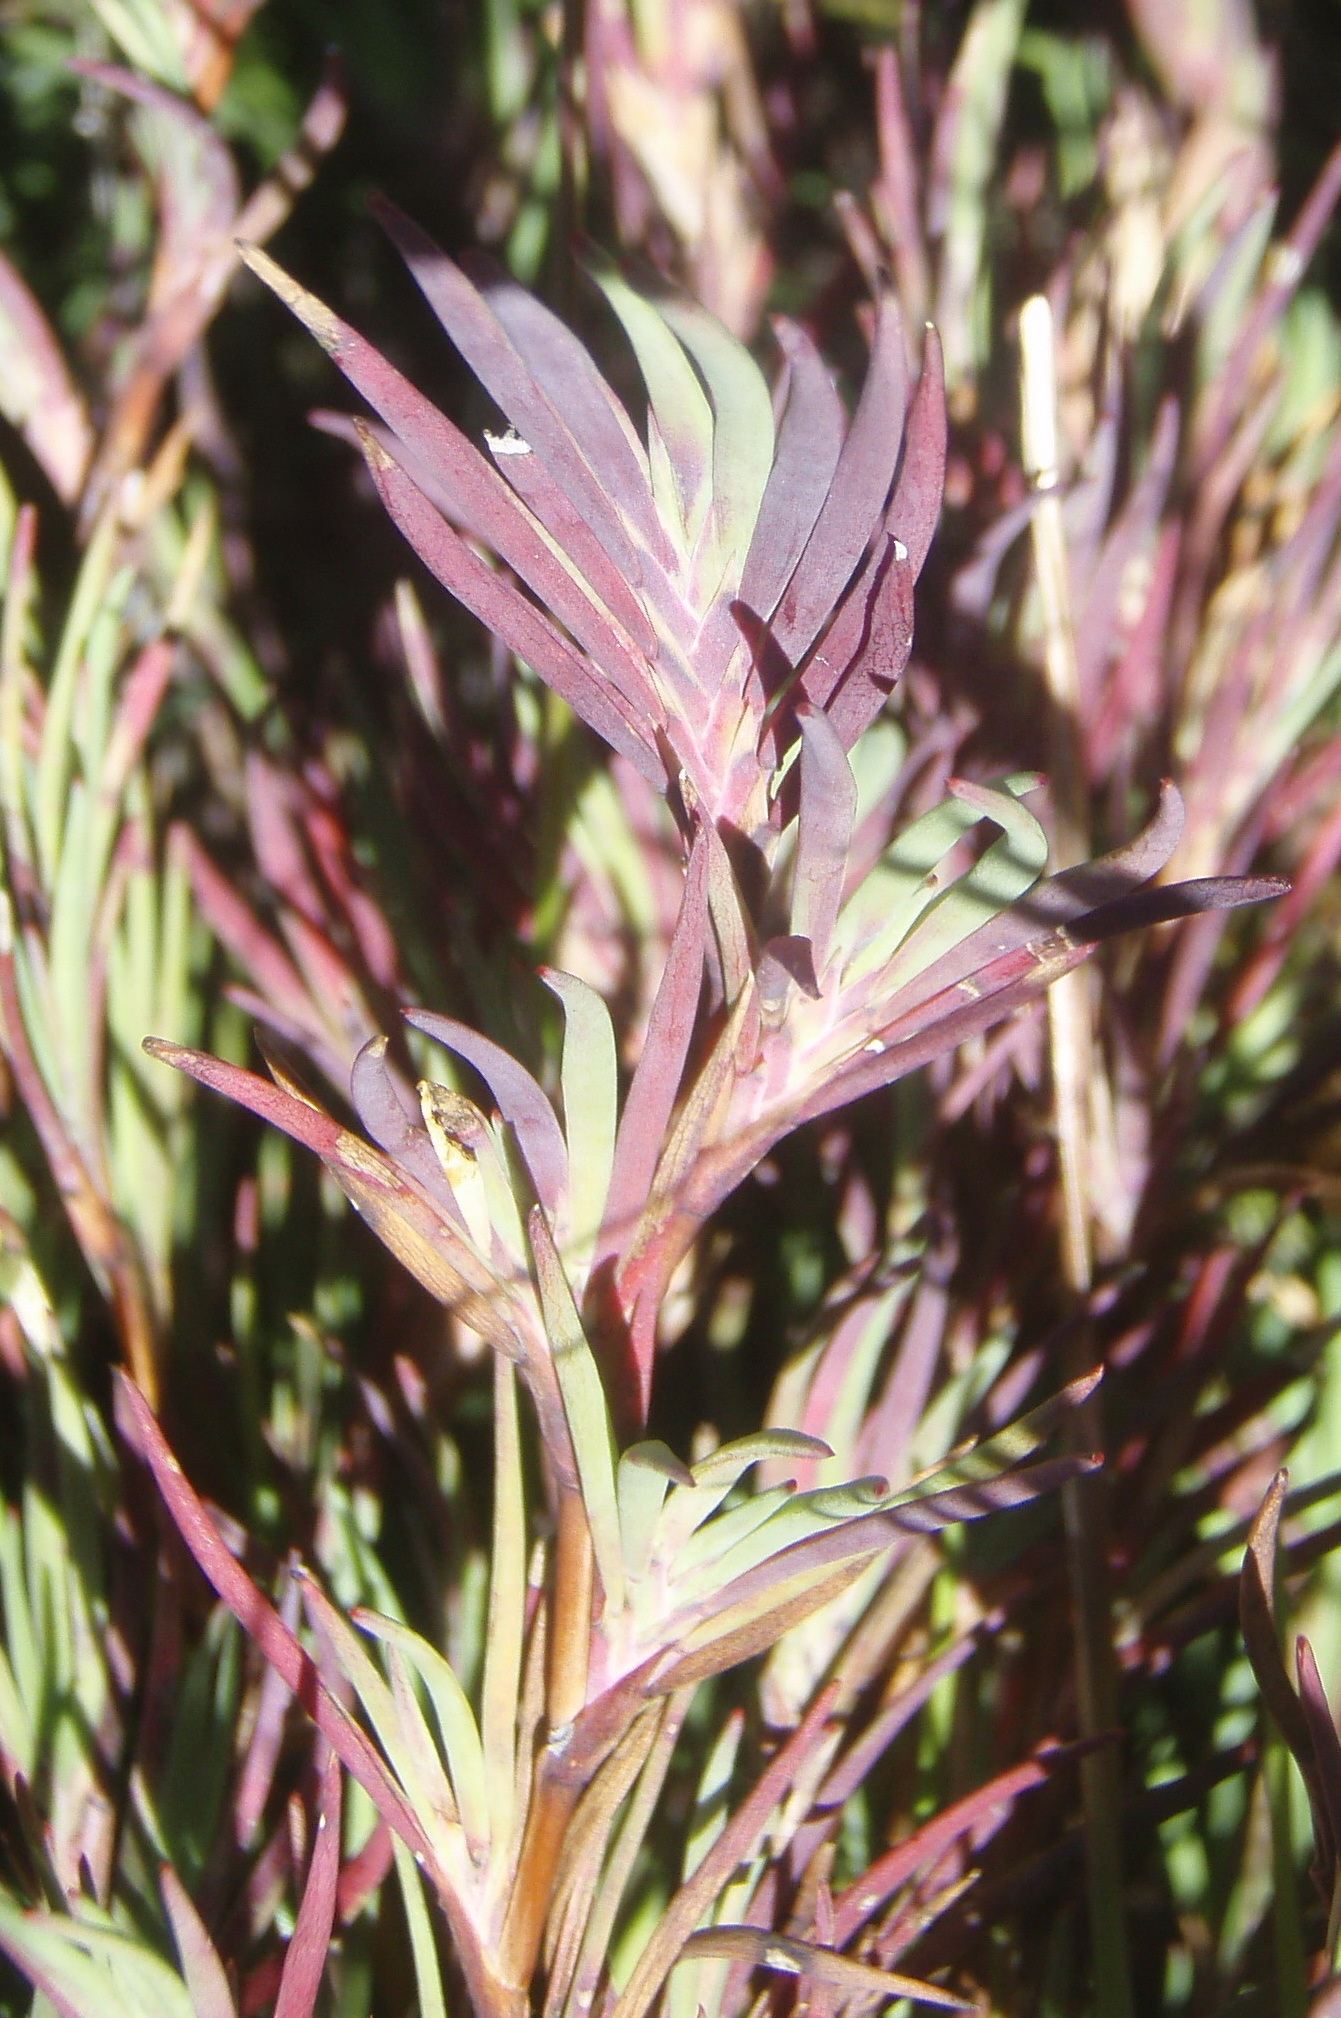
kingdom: Plantae
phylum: Tracheophyta
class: Magnoliopsida
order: Rosales
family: Rosaceae
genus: Cliffortia
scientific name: Cliffortia nivenioides
